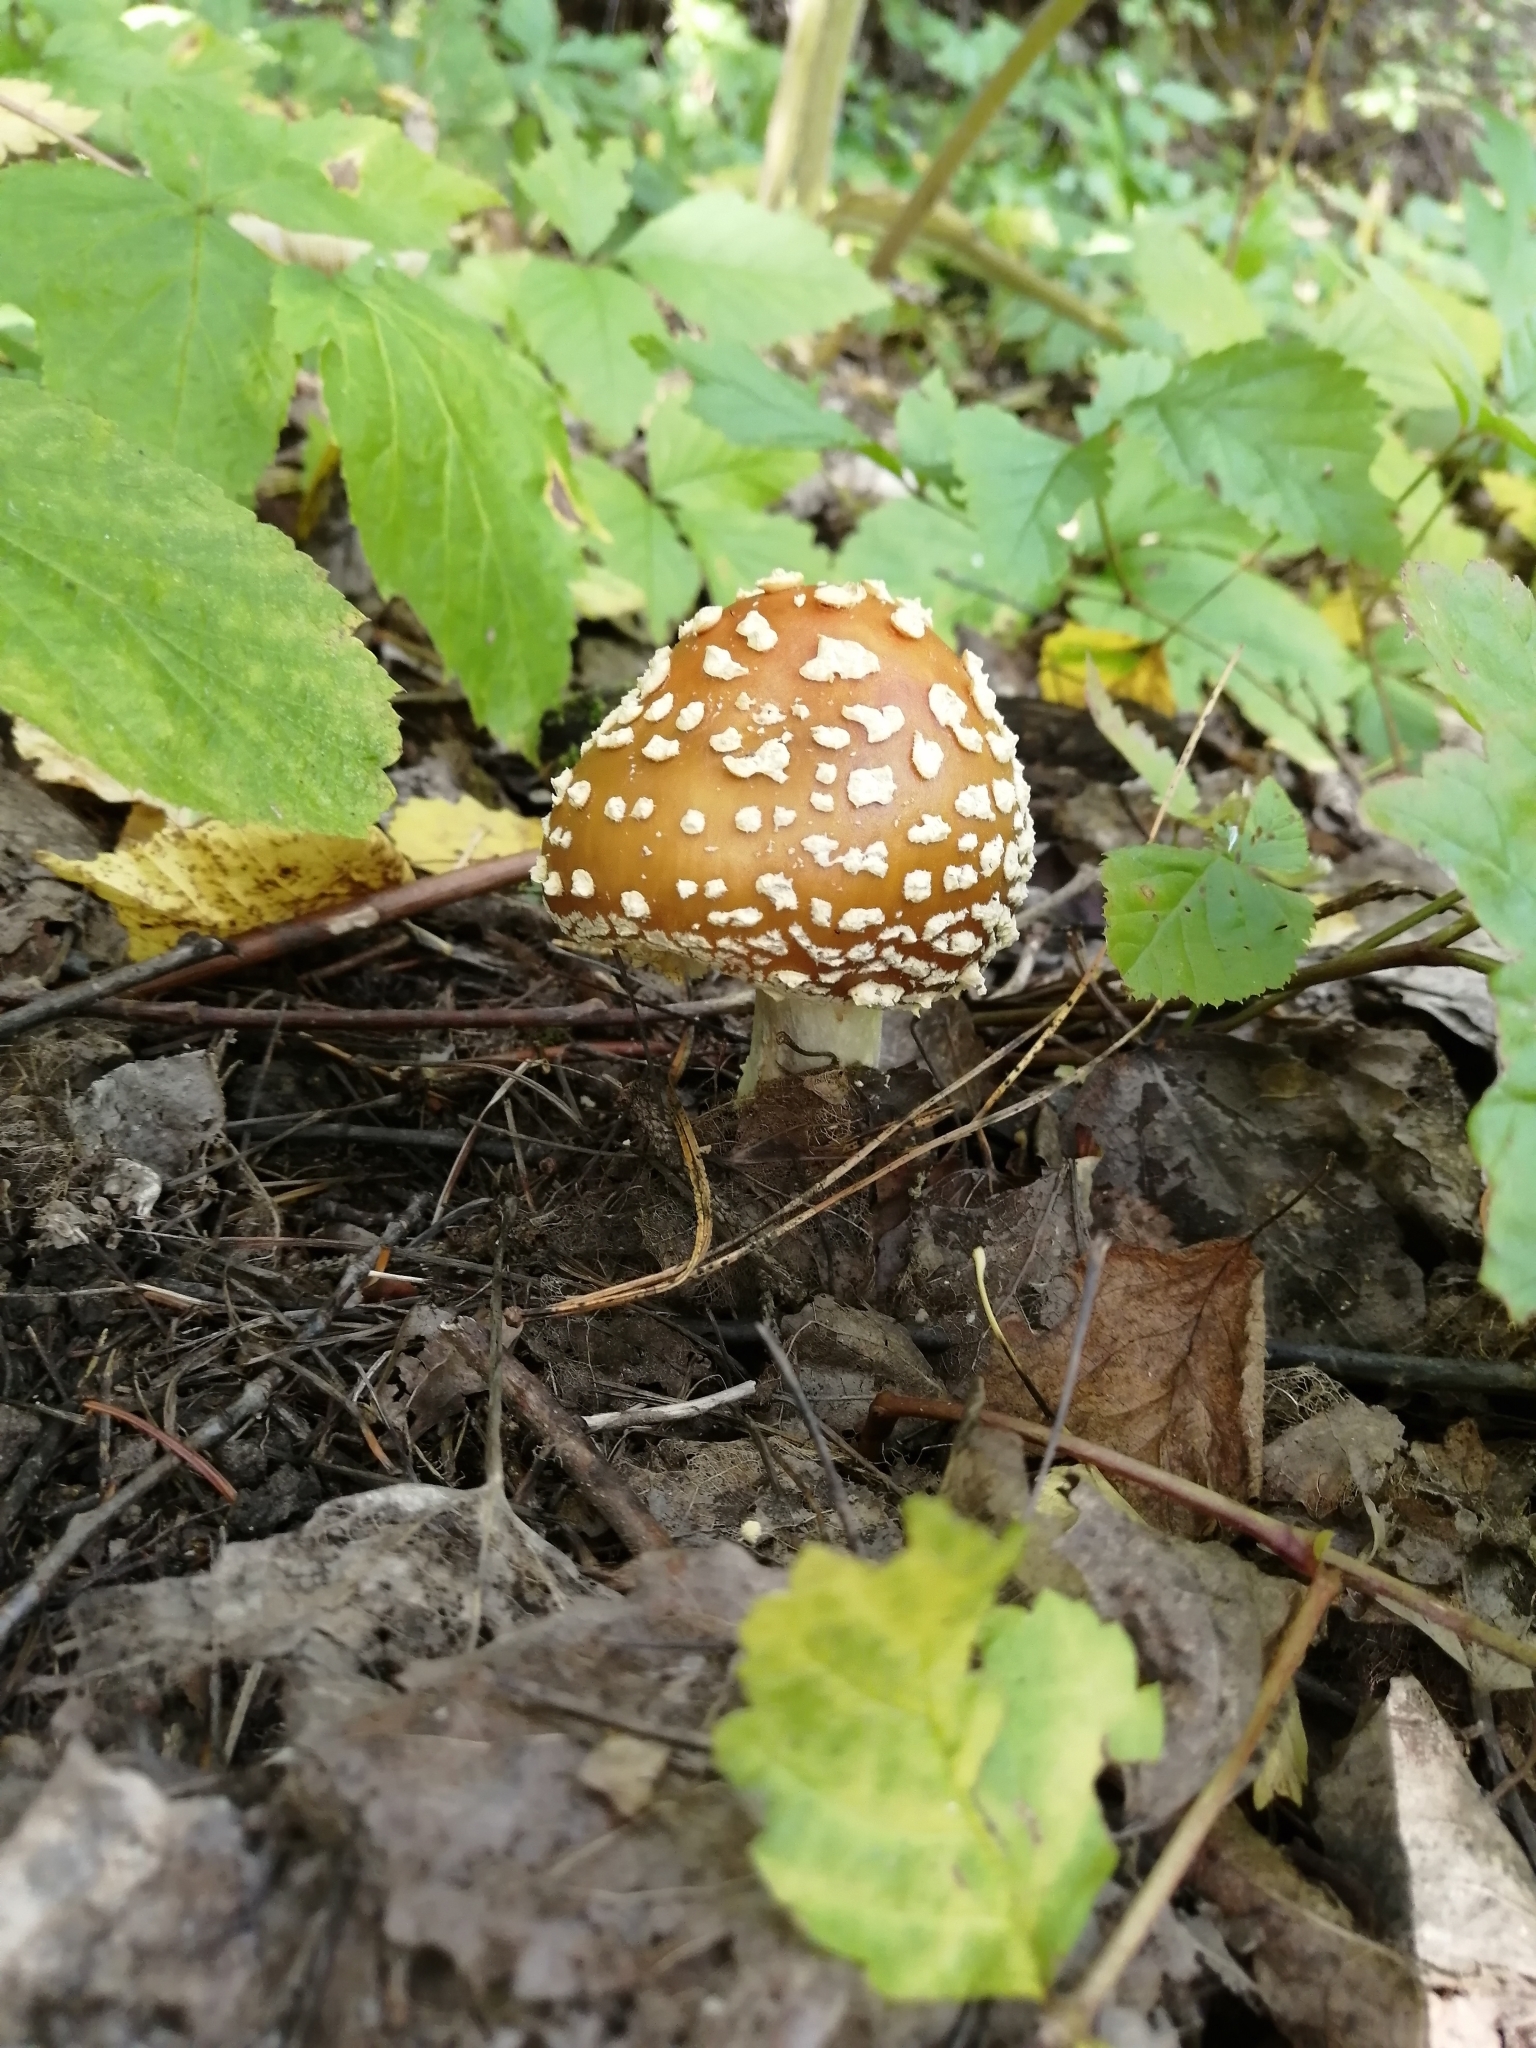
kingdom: Fungi
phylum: Basidiomycota
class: Agaricomycetes
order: Agaricales
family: Amanitaceae
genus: Amanita
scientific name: Amanita regalis
